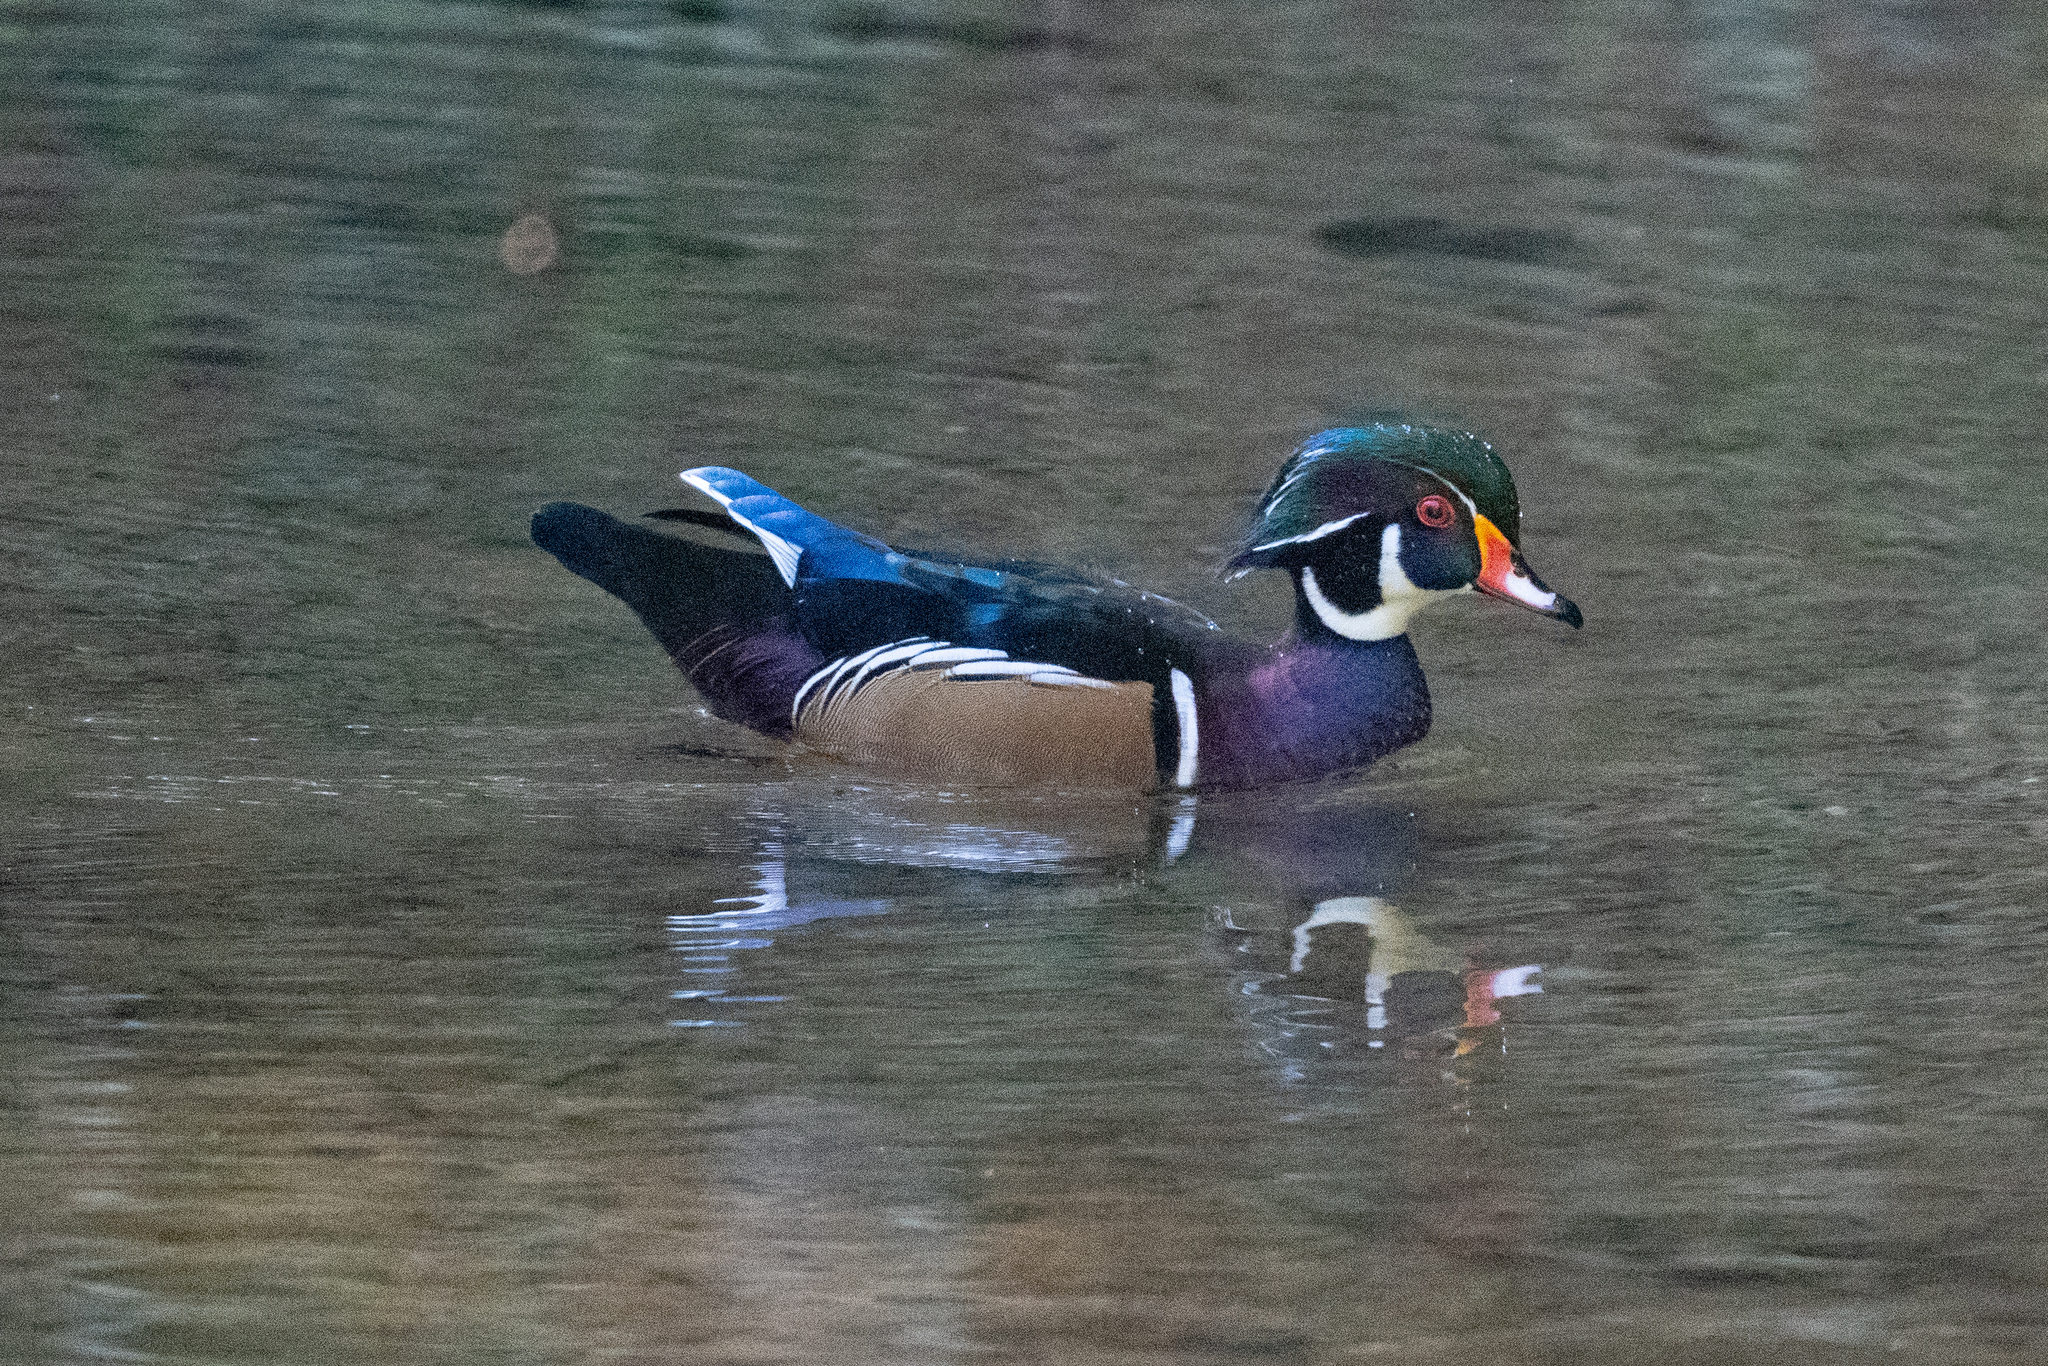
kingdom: Animalia
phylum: Chordata
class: Aves
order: Anseriformes
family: Anatidae
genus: Aix
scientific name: Aix sponsa
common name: Wood duck
